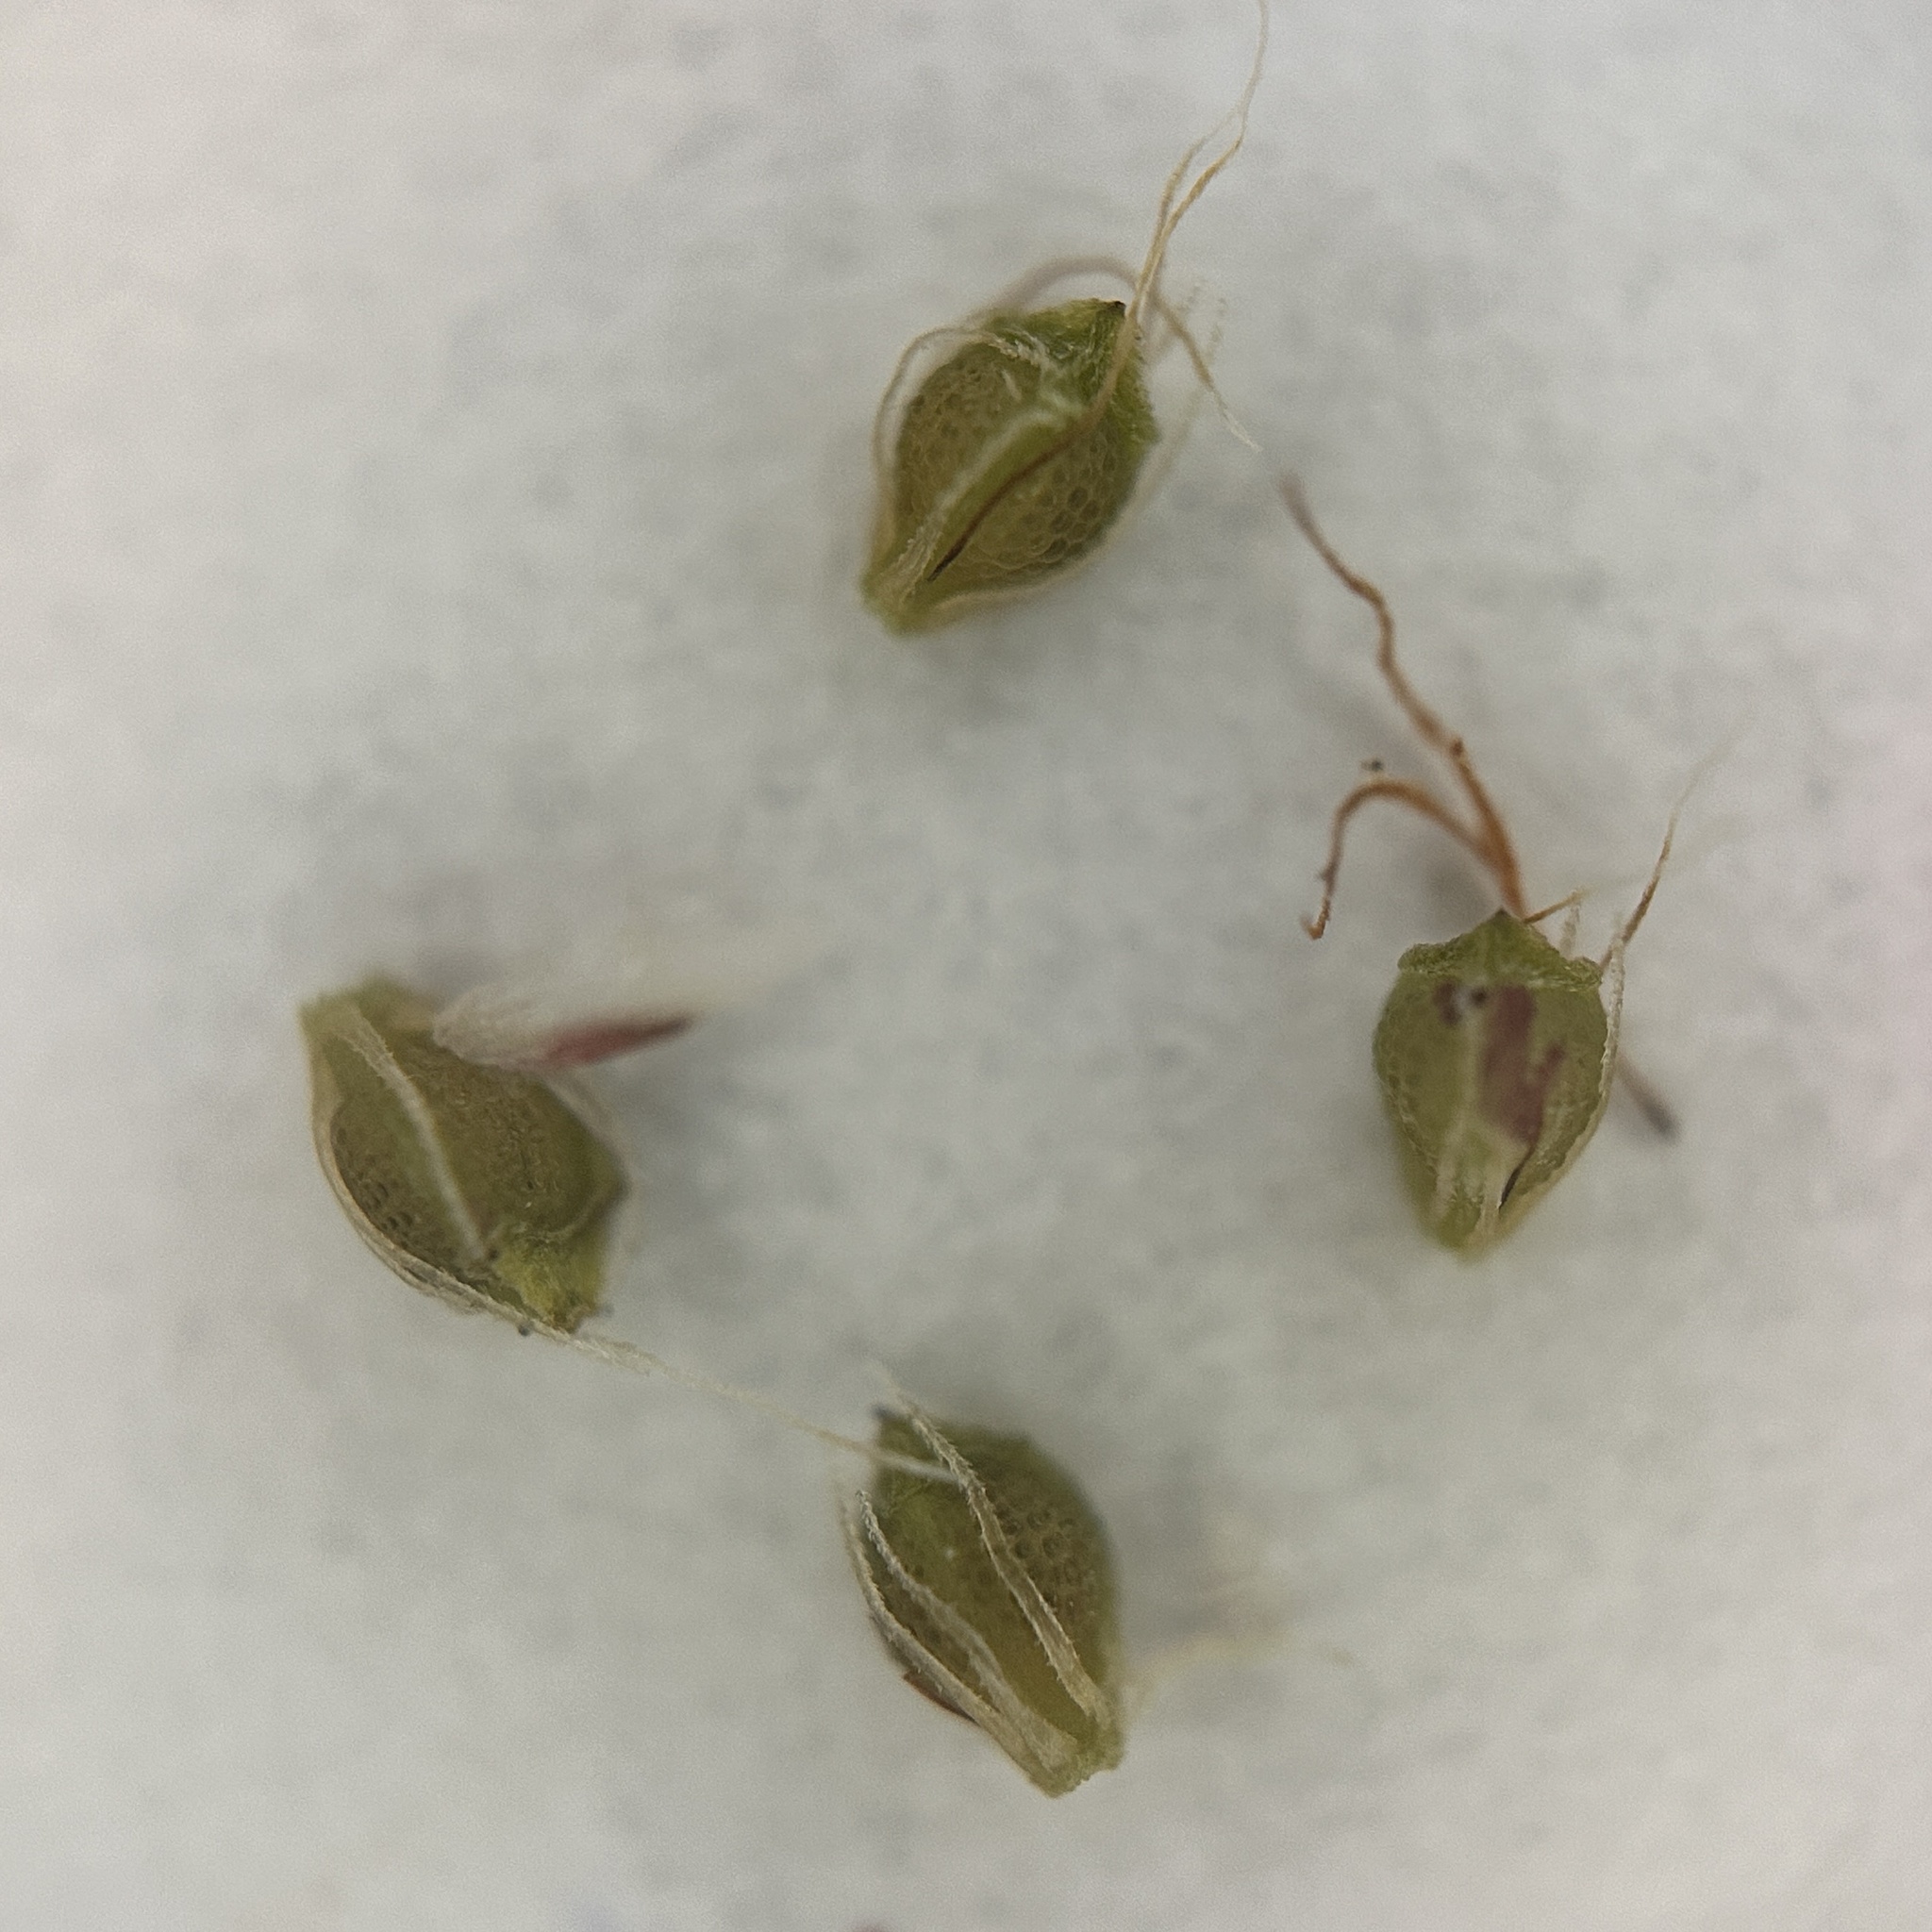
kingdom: Plantae
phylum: Tracheophyta
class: Liliopsida
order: Poales
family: Cyperaceae
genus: Eleocharis
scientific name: Eleocharis retroflexa
